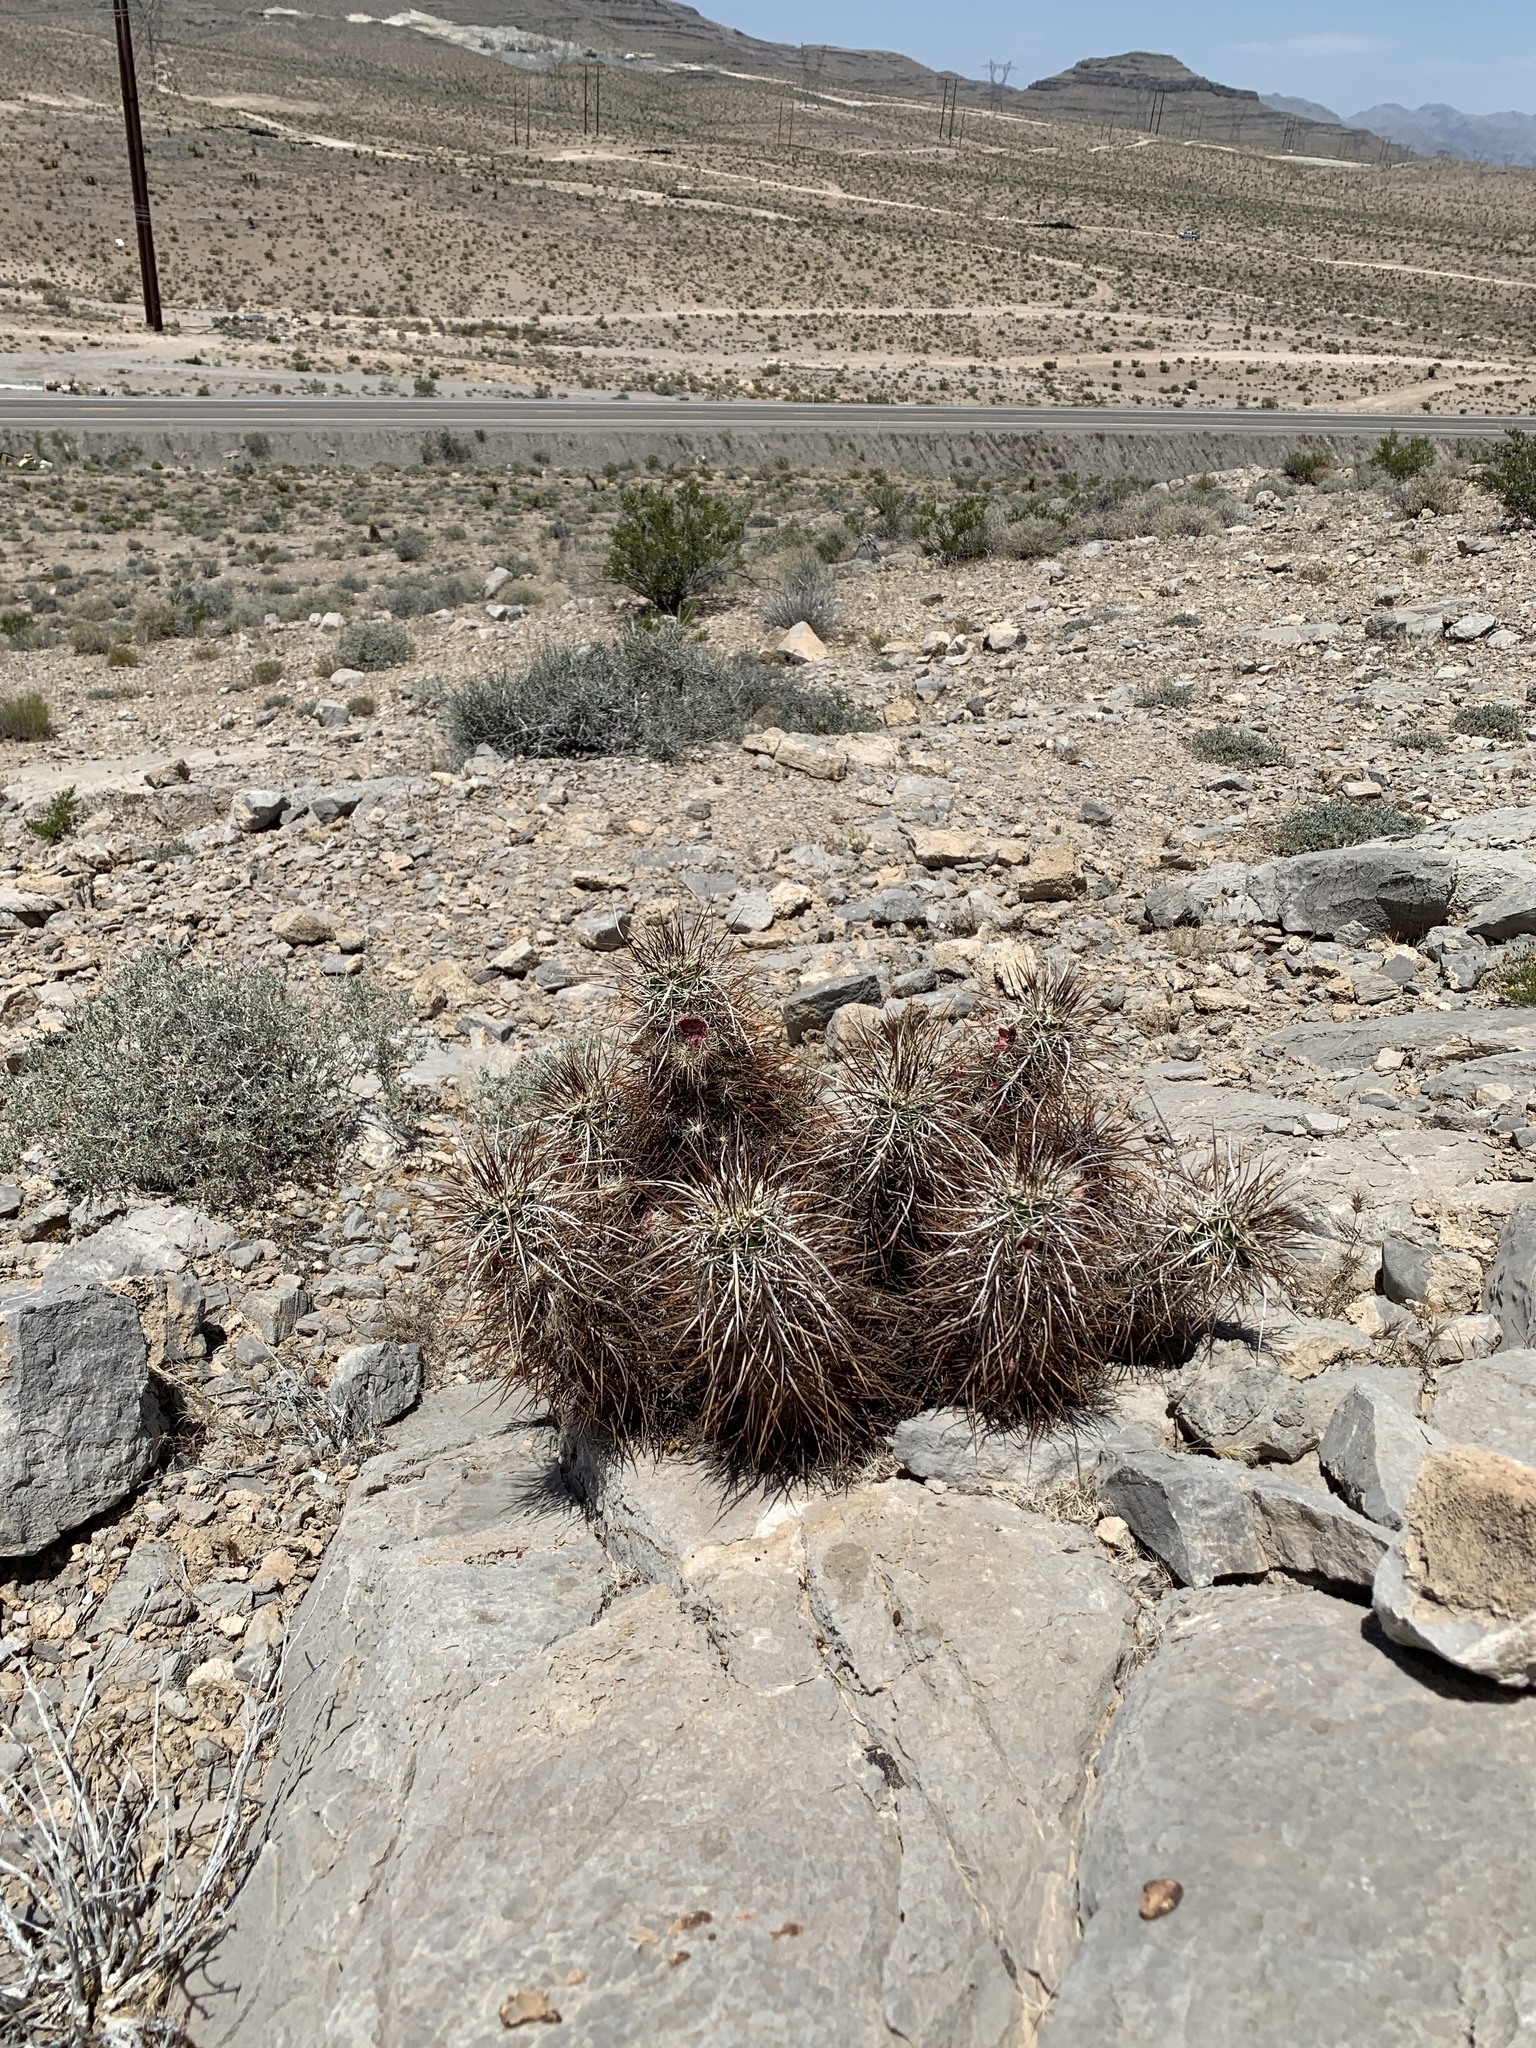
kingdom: Plantae
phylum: Tracheophyta
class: Magnoliopsida
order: Caryophyllales
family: Cactaceae
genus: Echinocereus
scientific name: Echinocereus engelmannii
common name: Engelmann's hedgehog cactus
